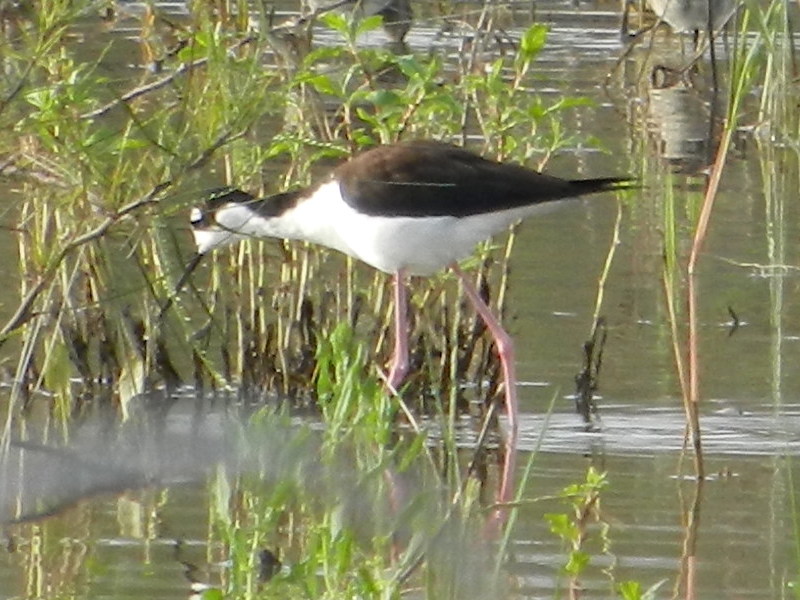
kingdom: Animalia
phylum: Chordata
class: Aves
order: Charadriiformes
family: Recurvirostridae
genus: Himantopus
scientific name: Himantopus mexicanus
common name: Black-necked stilt
